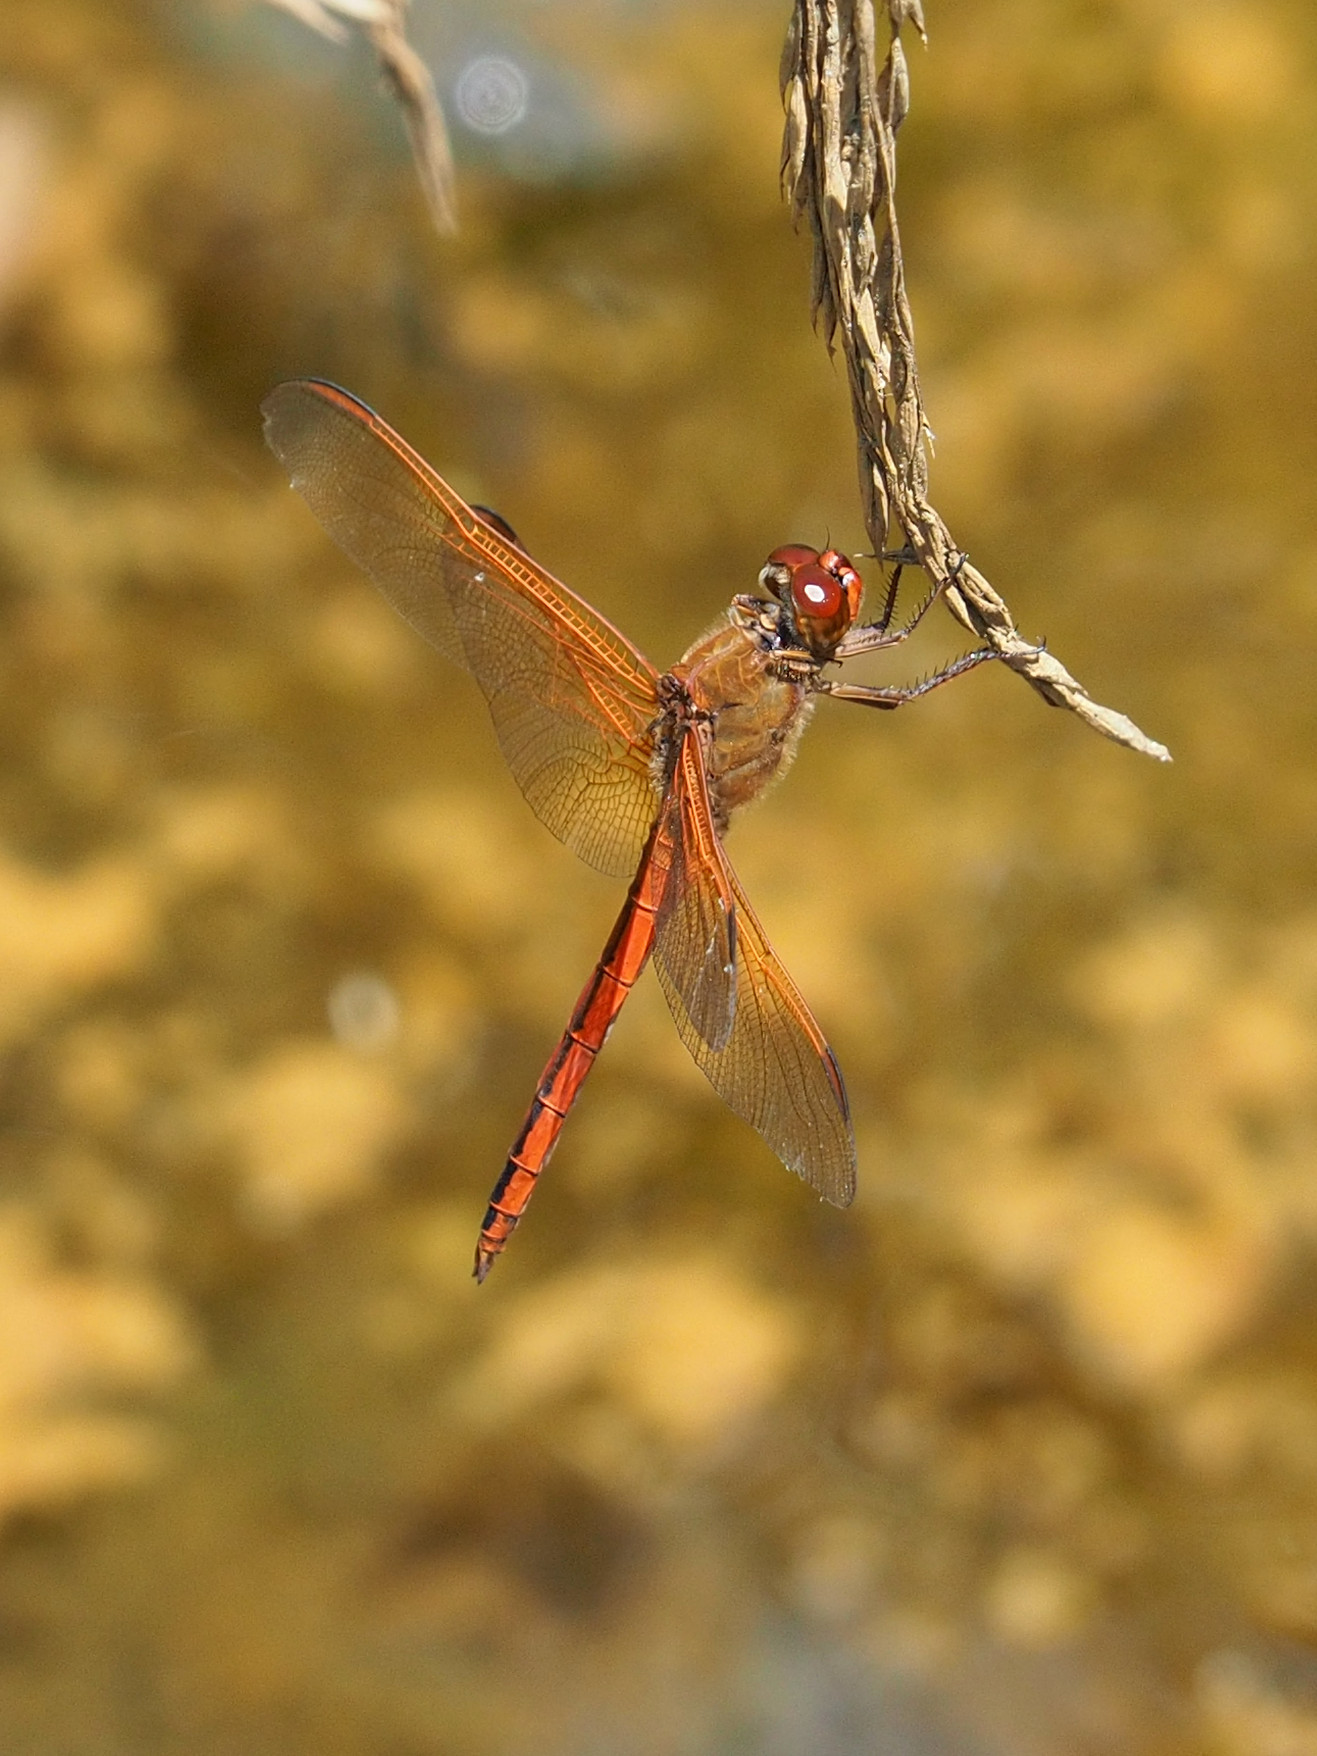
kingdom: Animalia
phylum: Arthropoda
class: Insecta
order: Odonata
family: Libellulidae
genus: Libellula
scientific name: Libellula needhami
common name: Needham's skimmer
